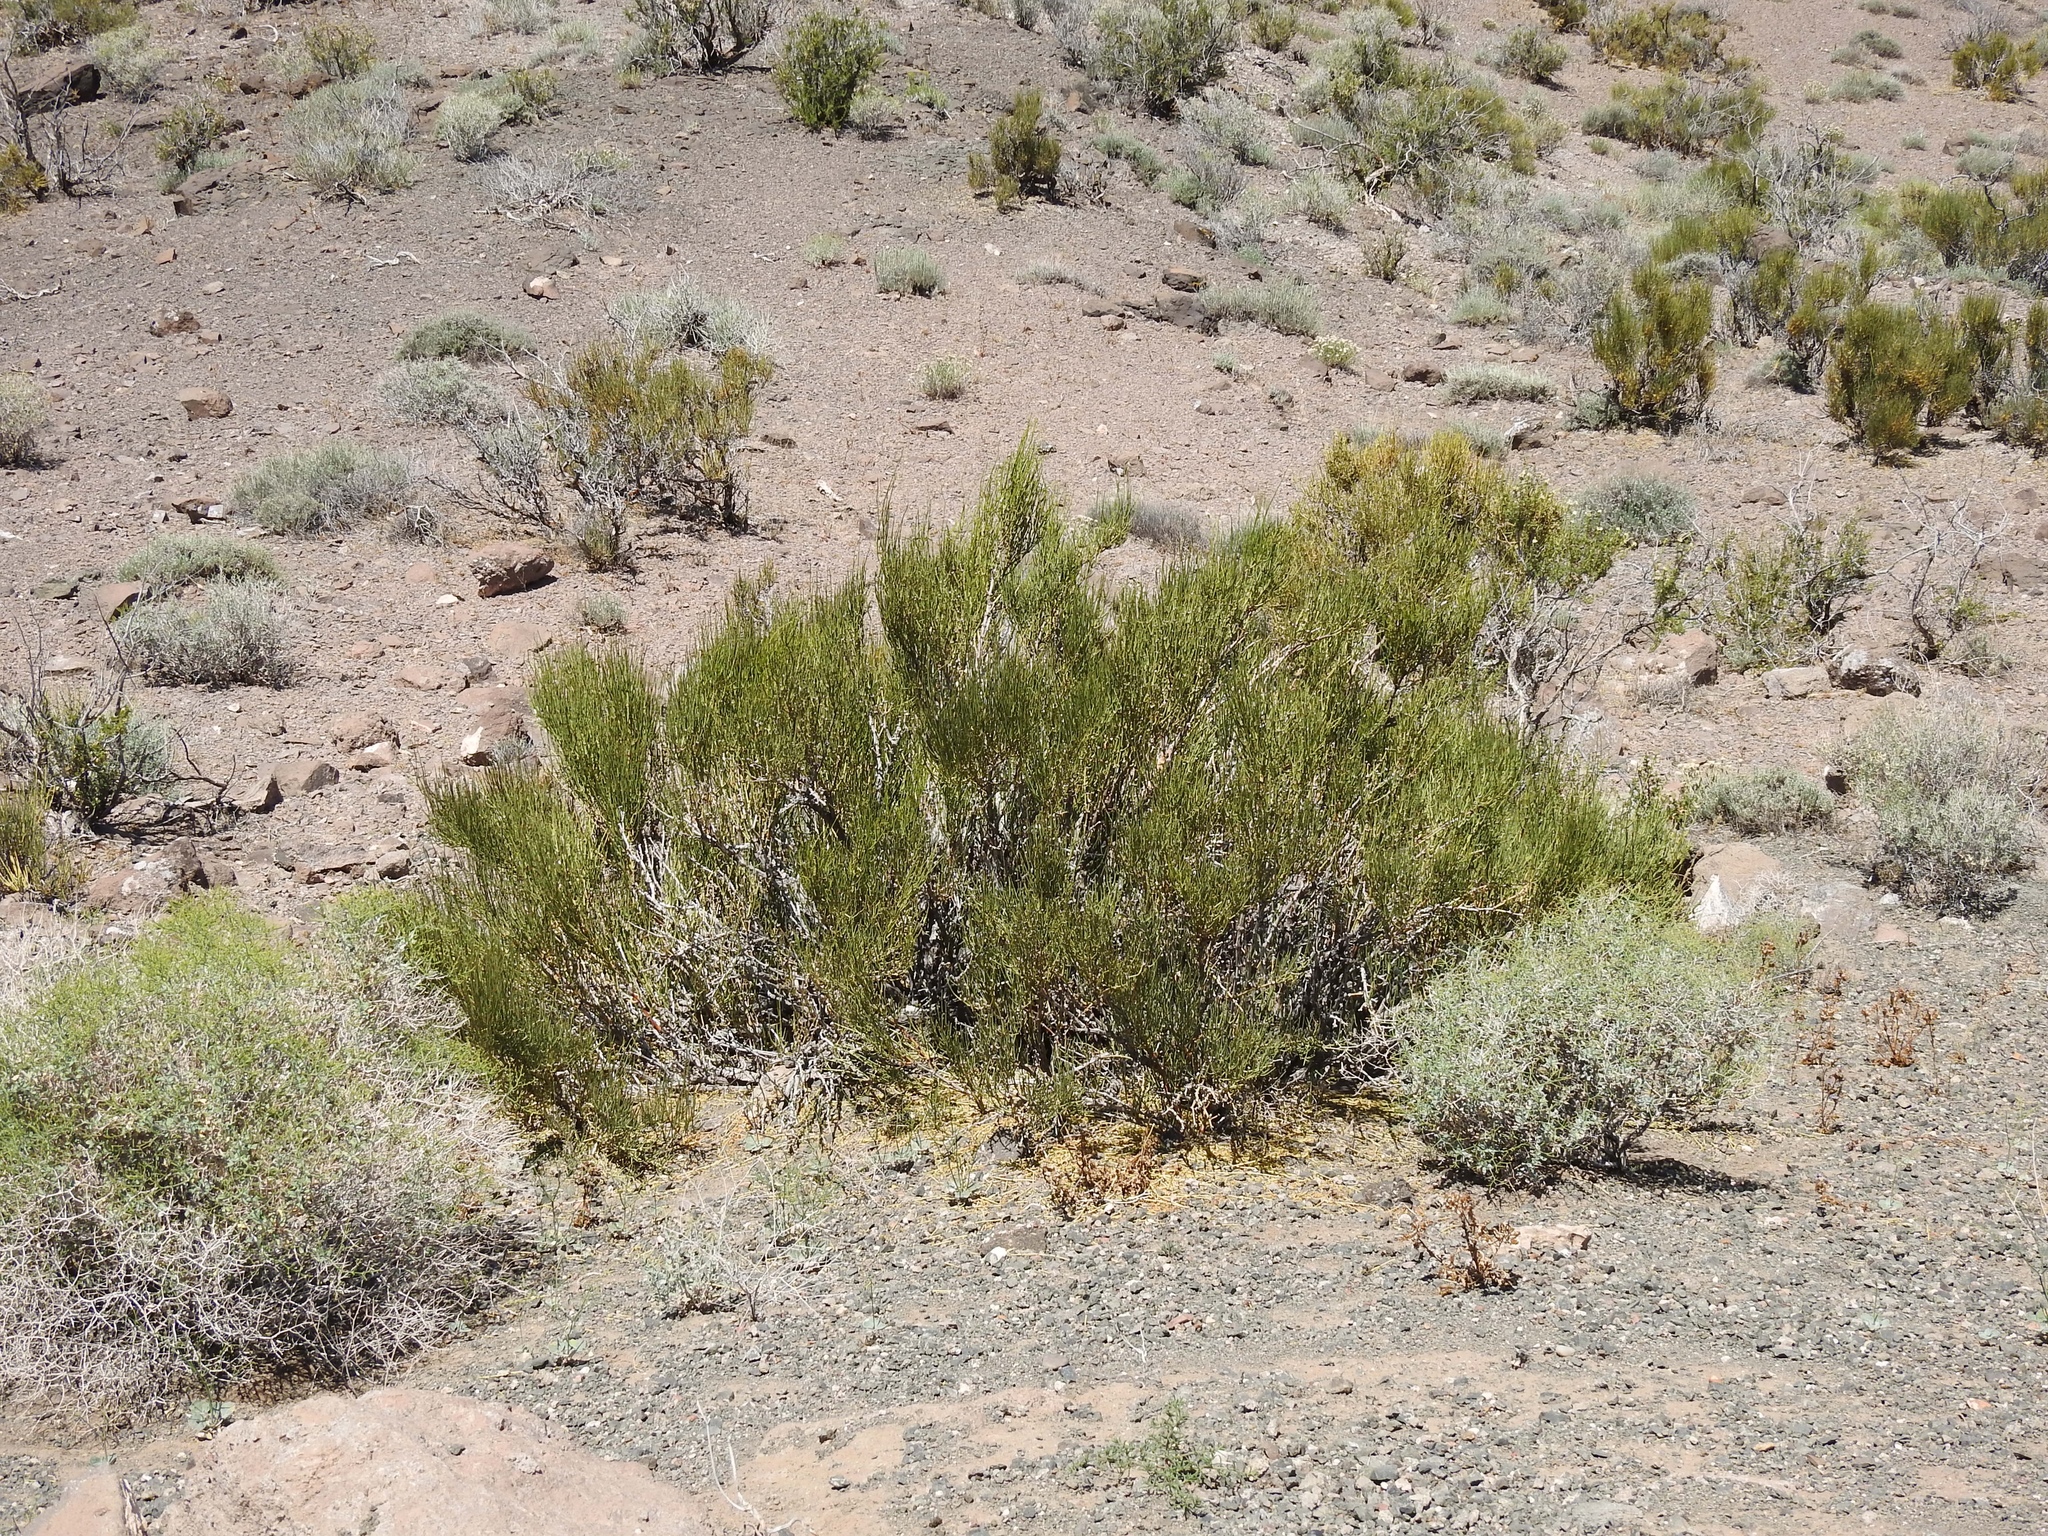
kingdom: Plantae
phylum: Tracheophyta
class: Gnetopsida
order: Ephedrales
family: Ephedraceae
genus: Ephedra
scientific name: Ephedra viridis
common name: Green ephedra
